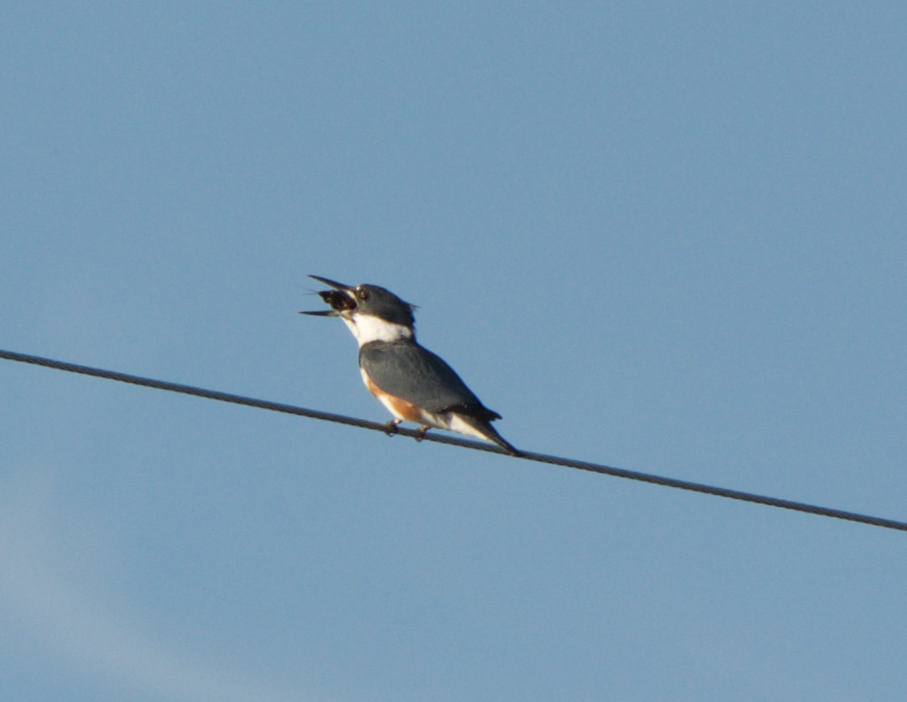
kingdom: Animalia
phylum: Chordata
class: Aves
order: Coraciiformes
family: Alcedinidae
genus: Megaceryle
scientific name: Megaceryle alcyon
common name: Belted kingfisher
